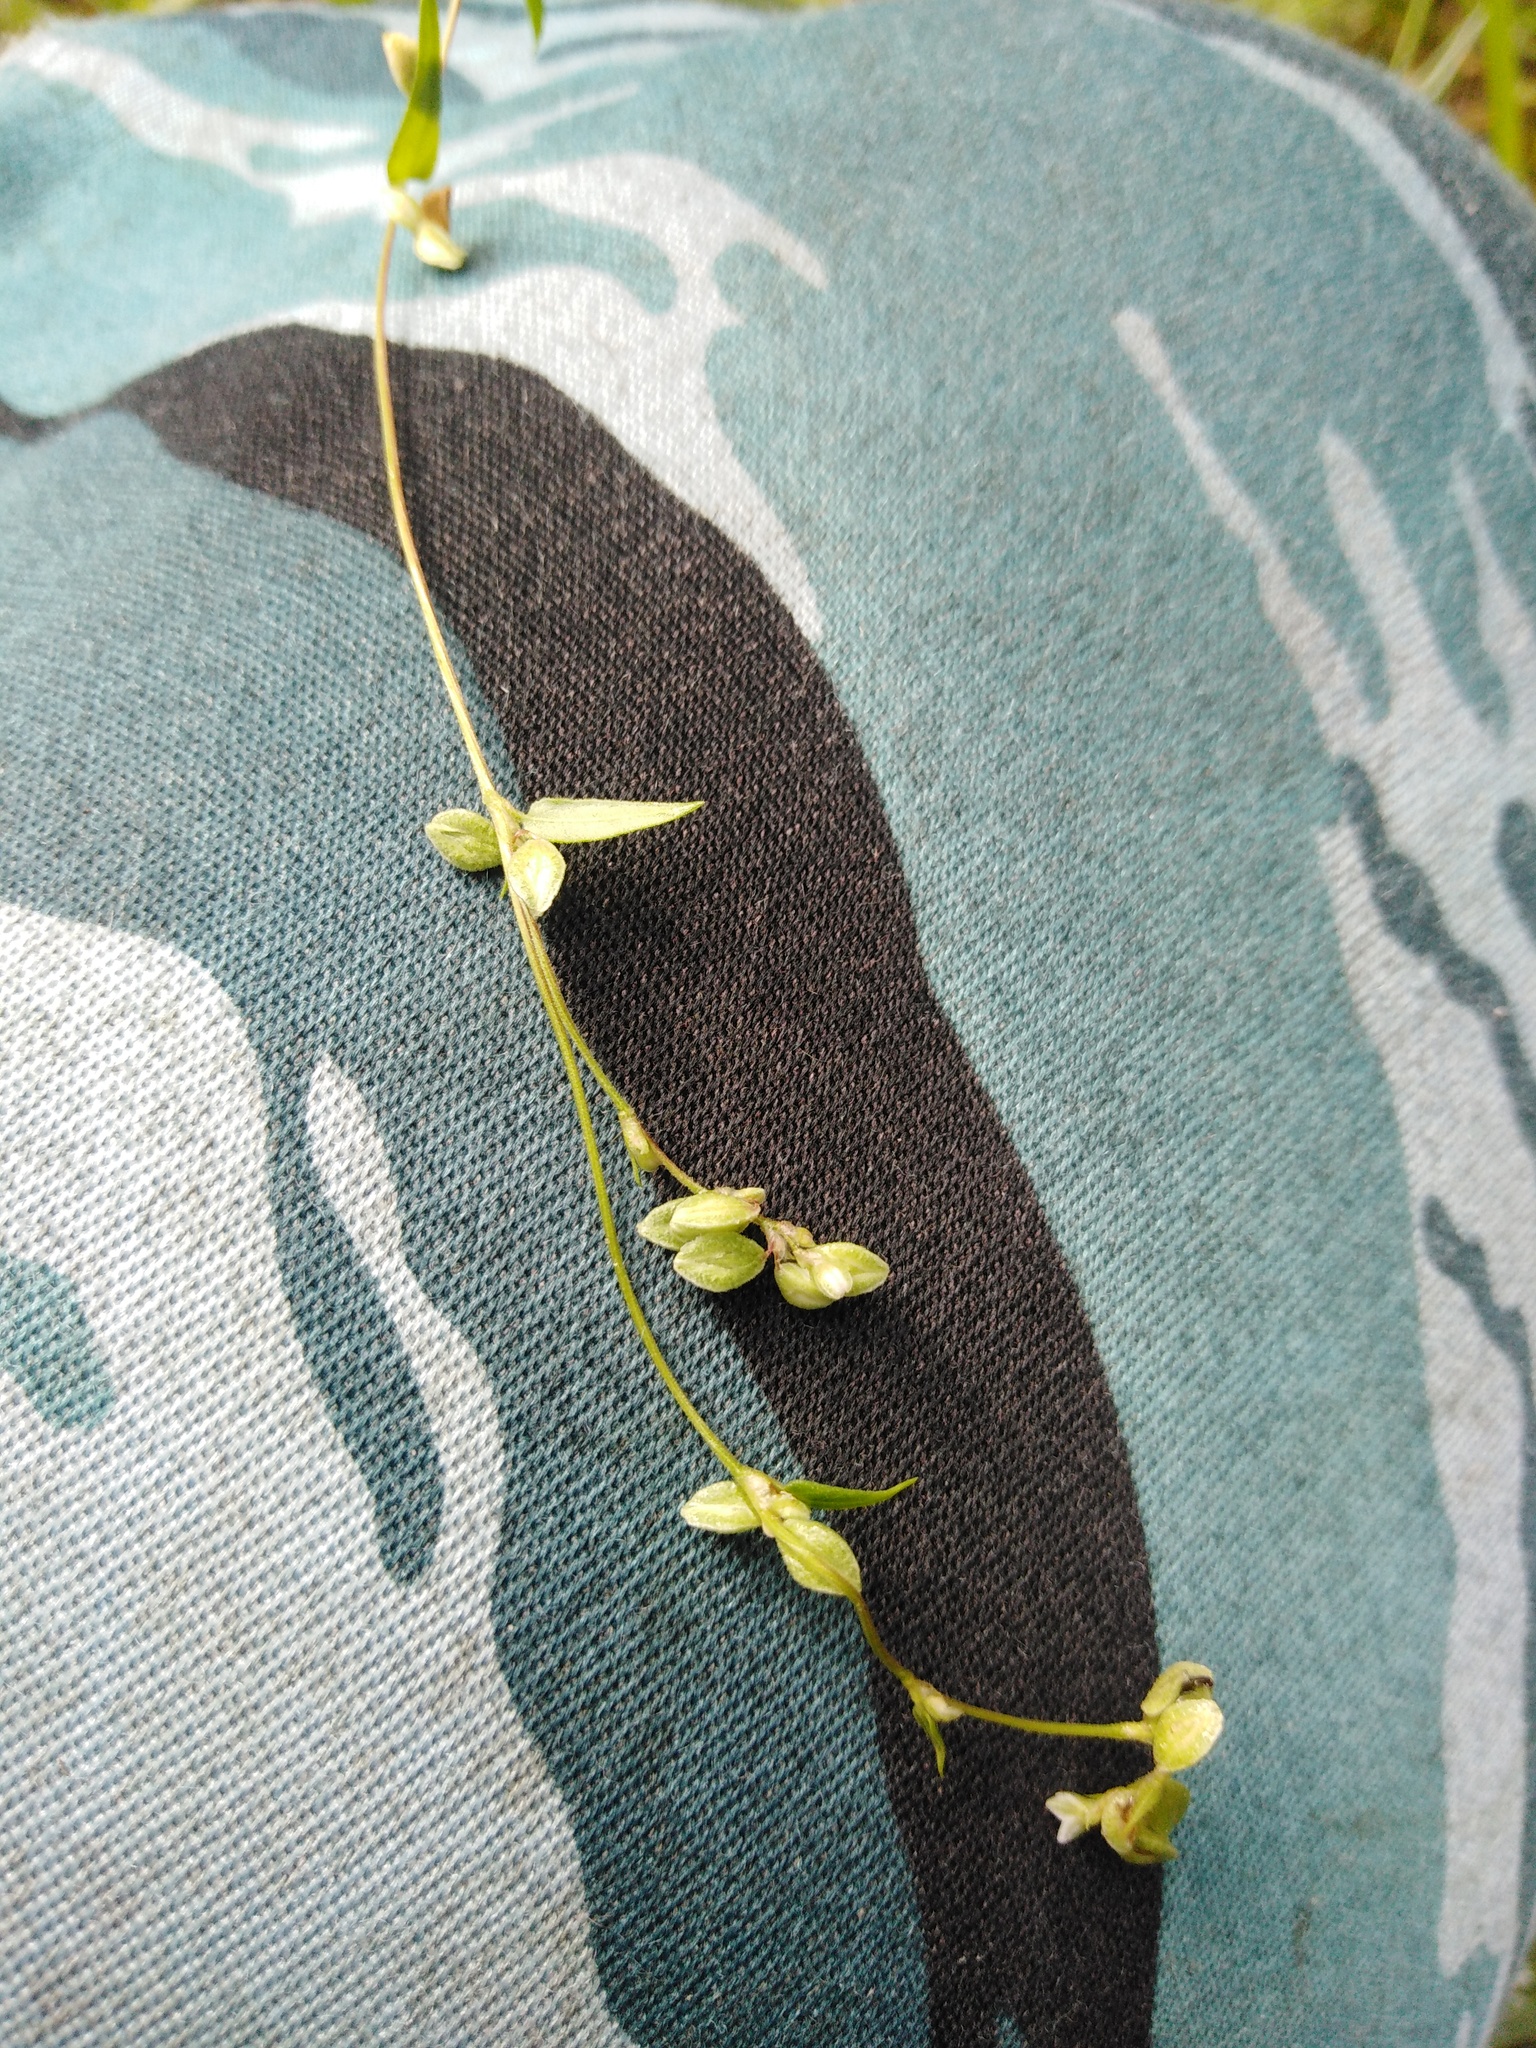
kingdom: Plantae
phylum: Tracheophyta
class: Magnoliopsida
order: Caryophyllales
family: Polygonaceae
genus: Fallopia
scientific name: Fallopia convolvulus
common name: Black bindweed
